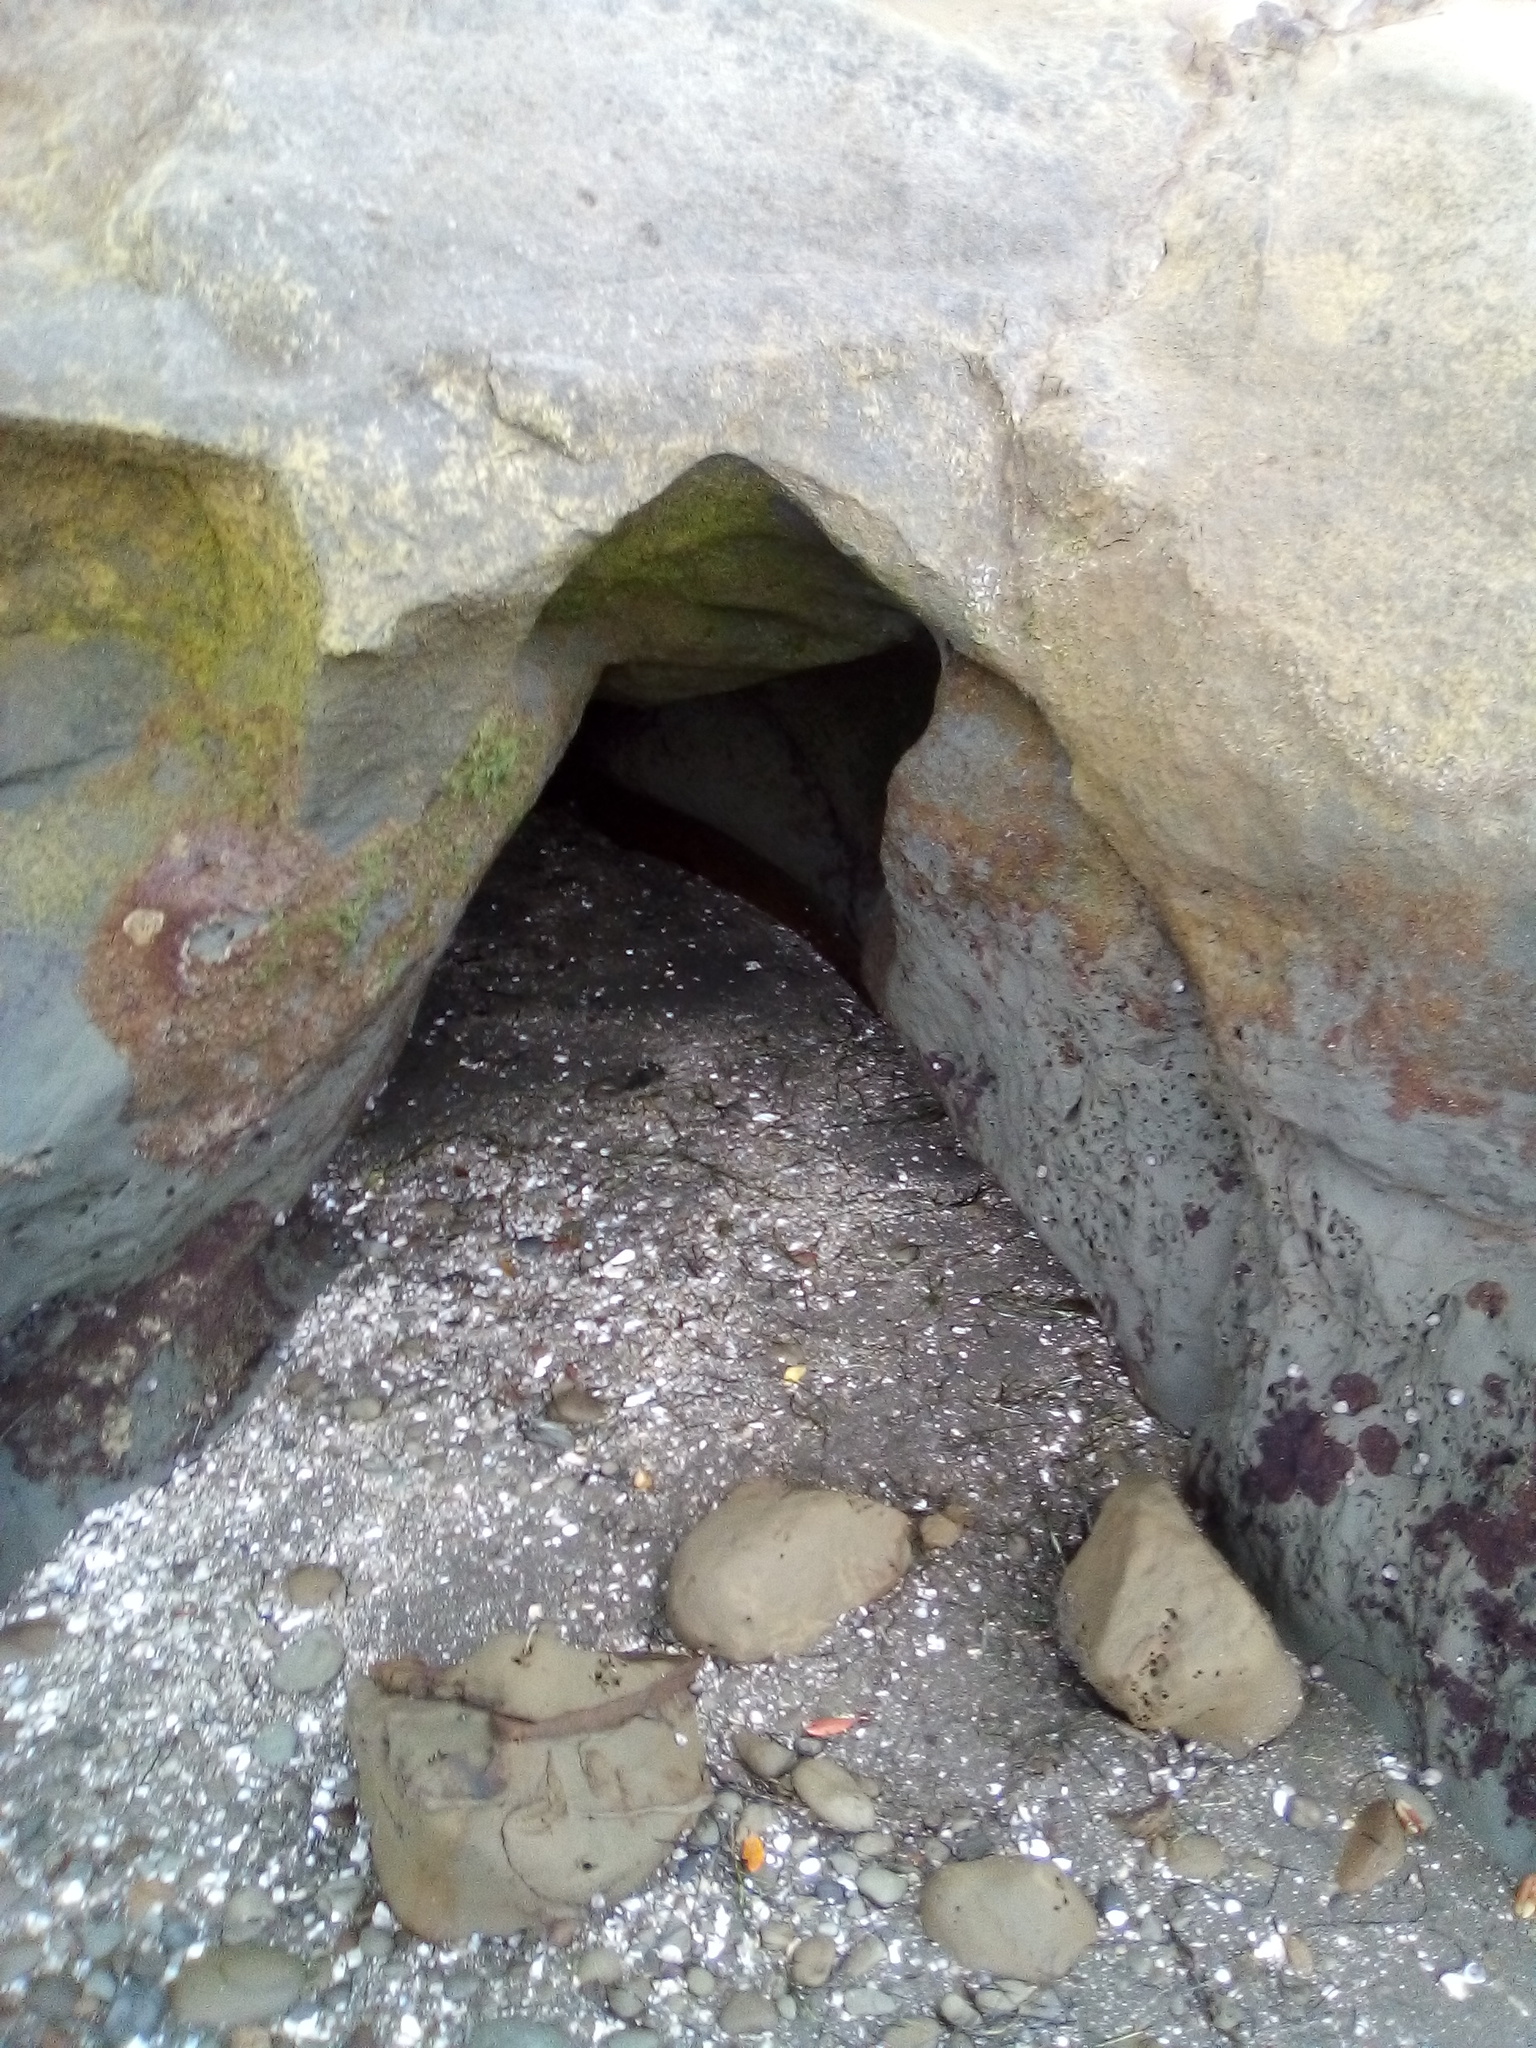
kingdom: Animalia
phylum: Mollusca
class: Gastropoda
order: Ellobiida
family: Ellobiidae
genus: Leuconopsis
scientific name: Leuconopsis obsoleta
